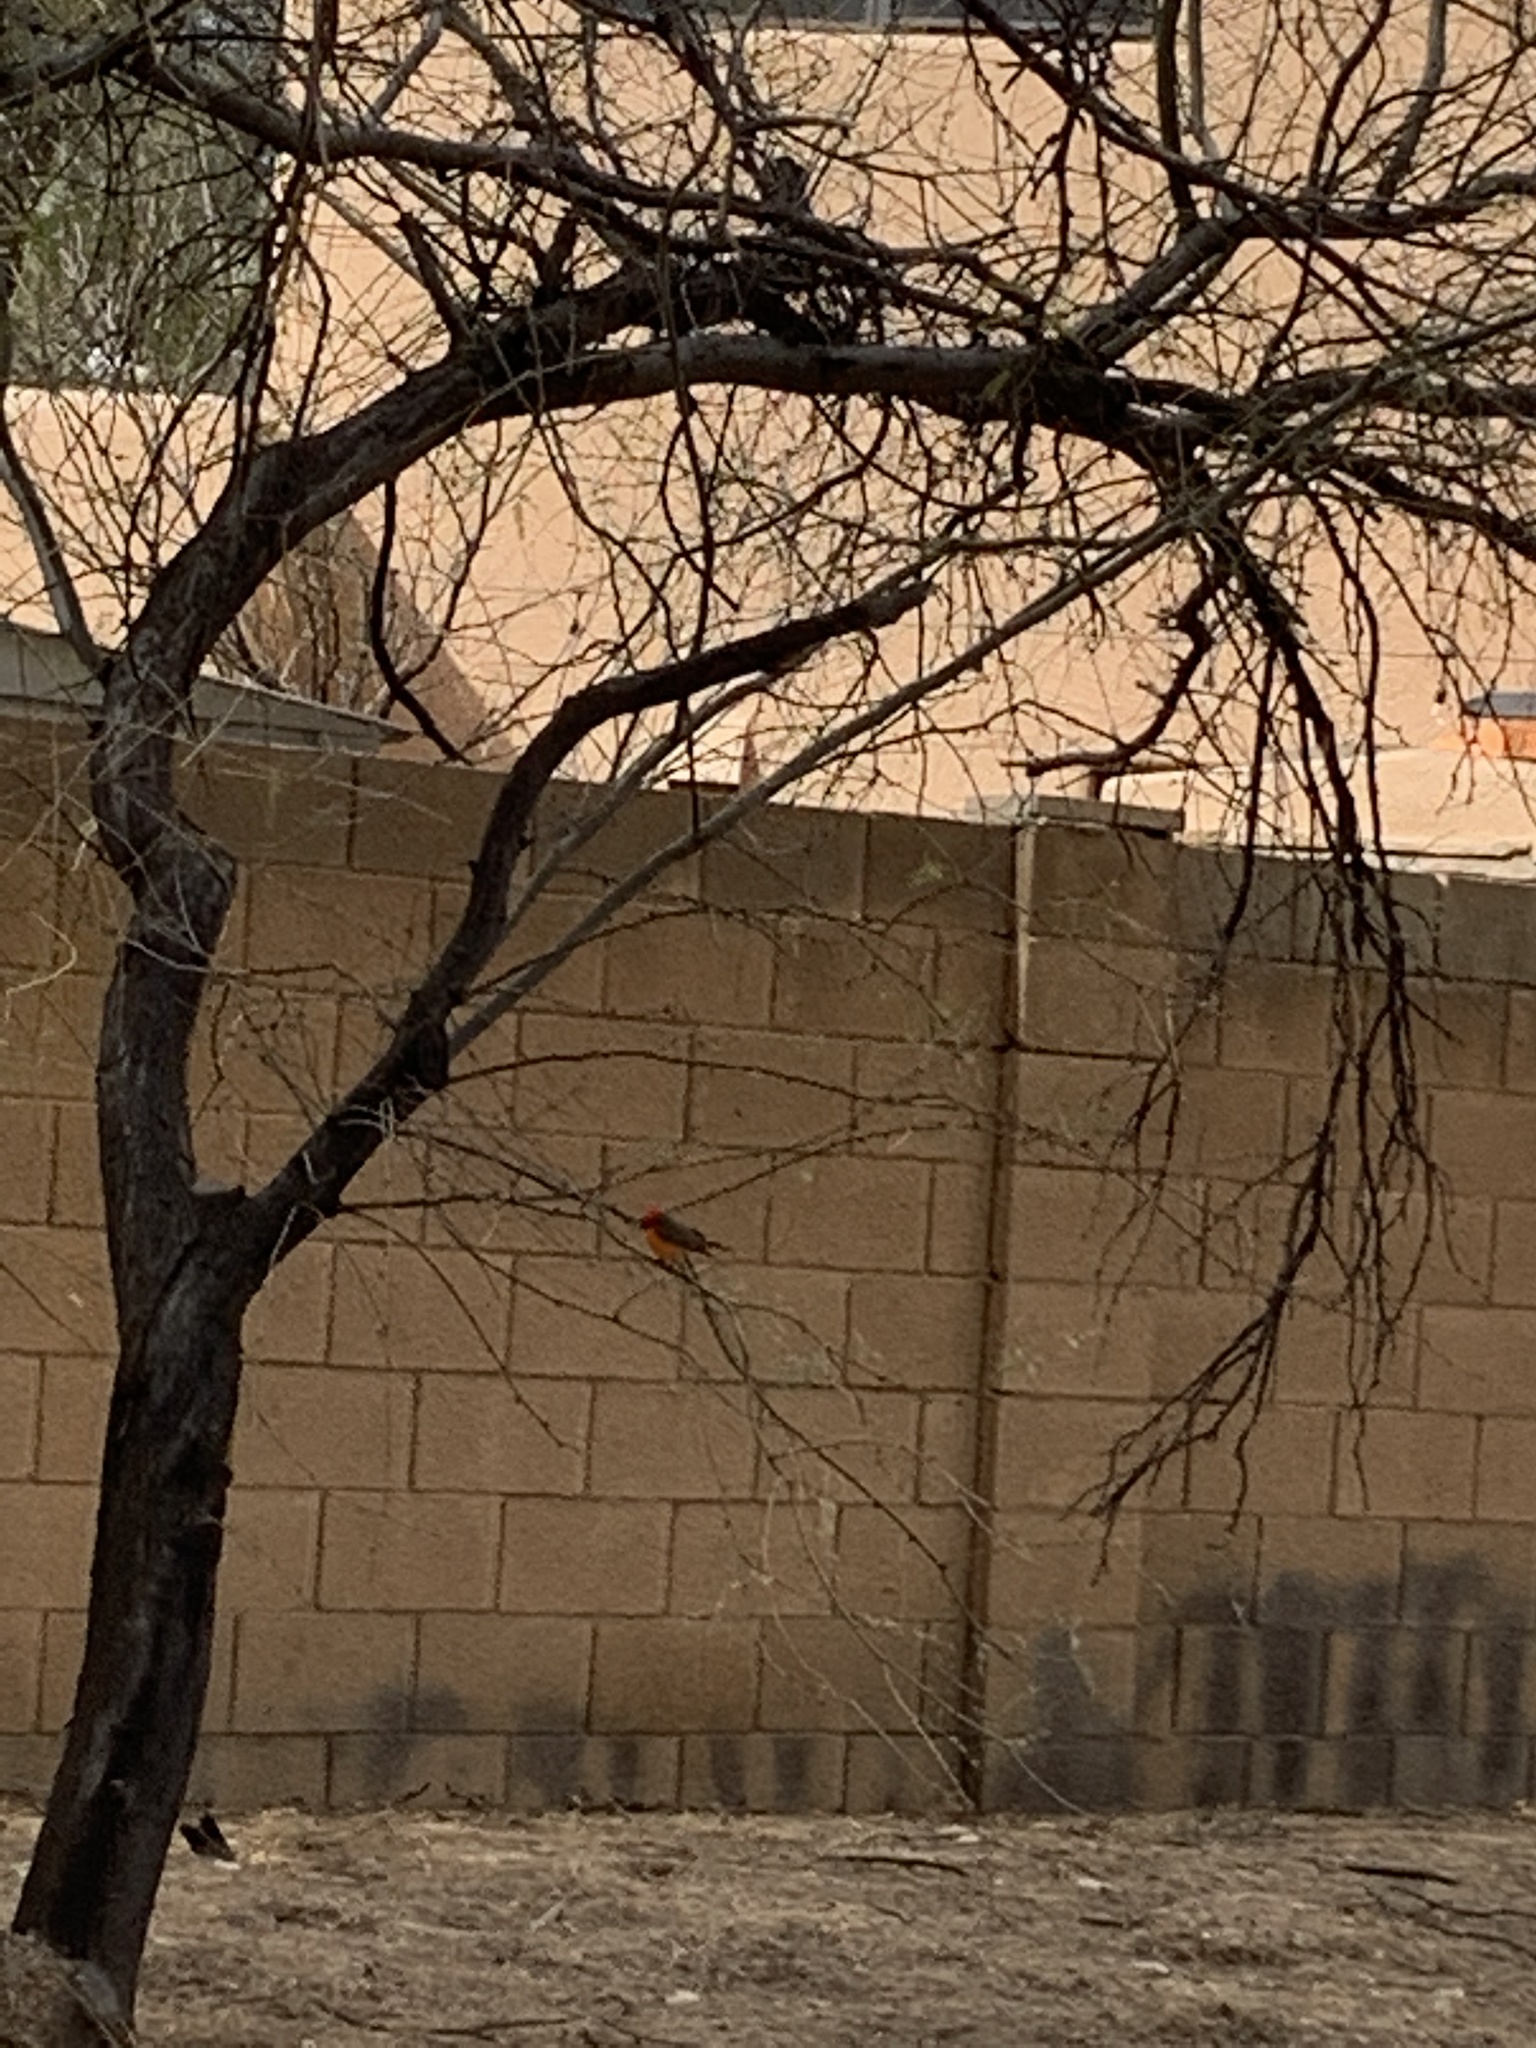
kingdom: Animalia
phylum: Chordata
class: Aves
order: Passeriformes
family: Tyrannidae
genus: Pyrocephalus
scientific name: Pyrocephalus rubinus
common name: Vermilion flycatcher
